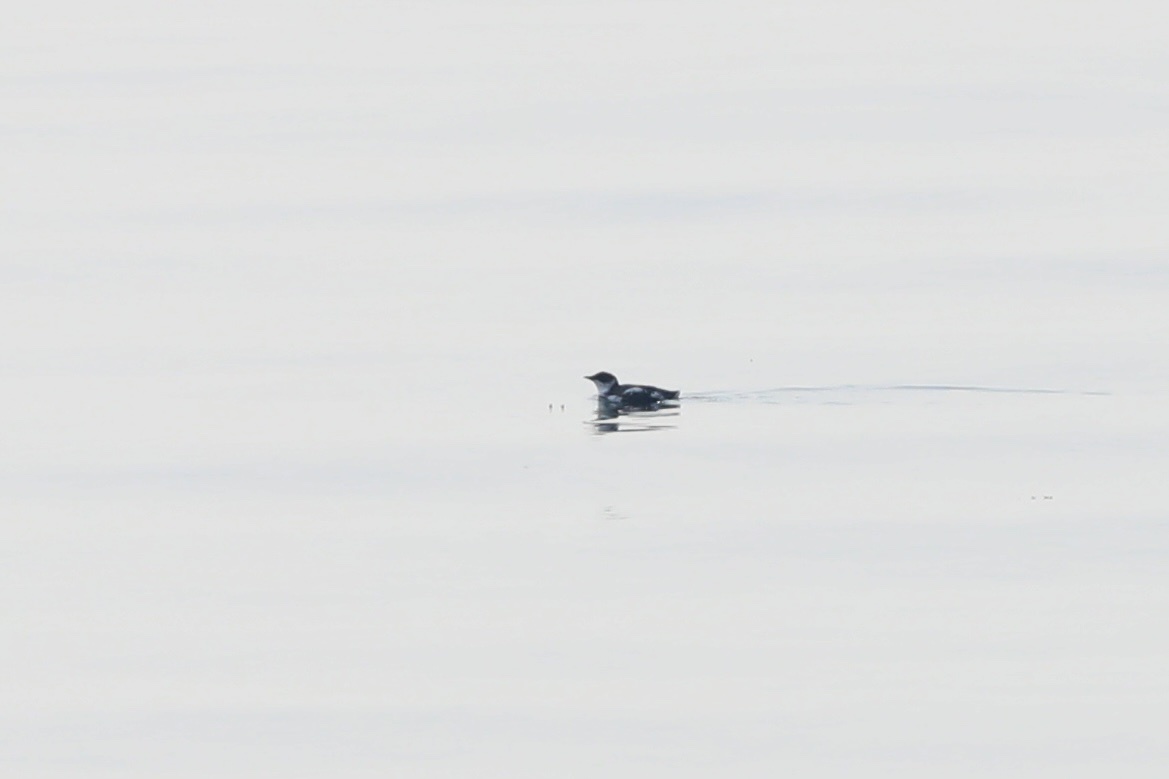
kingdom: Animalia
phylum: Chordata
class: Aves
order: Charadriiformes
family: Alcidae
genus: Brachyramphus
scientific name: Brachyramphus marmoratus
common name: Marbled murrelet
